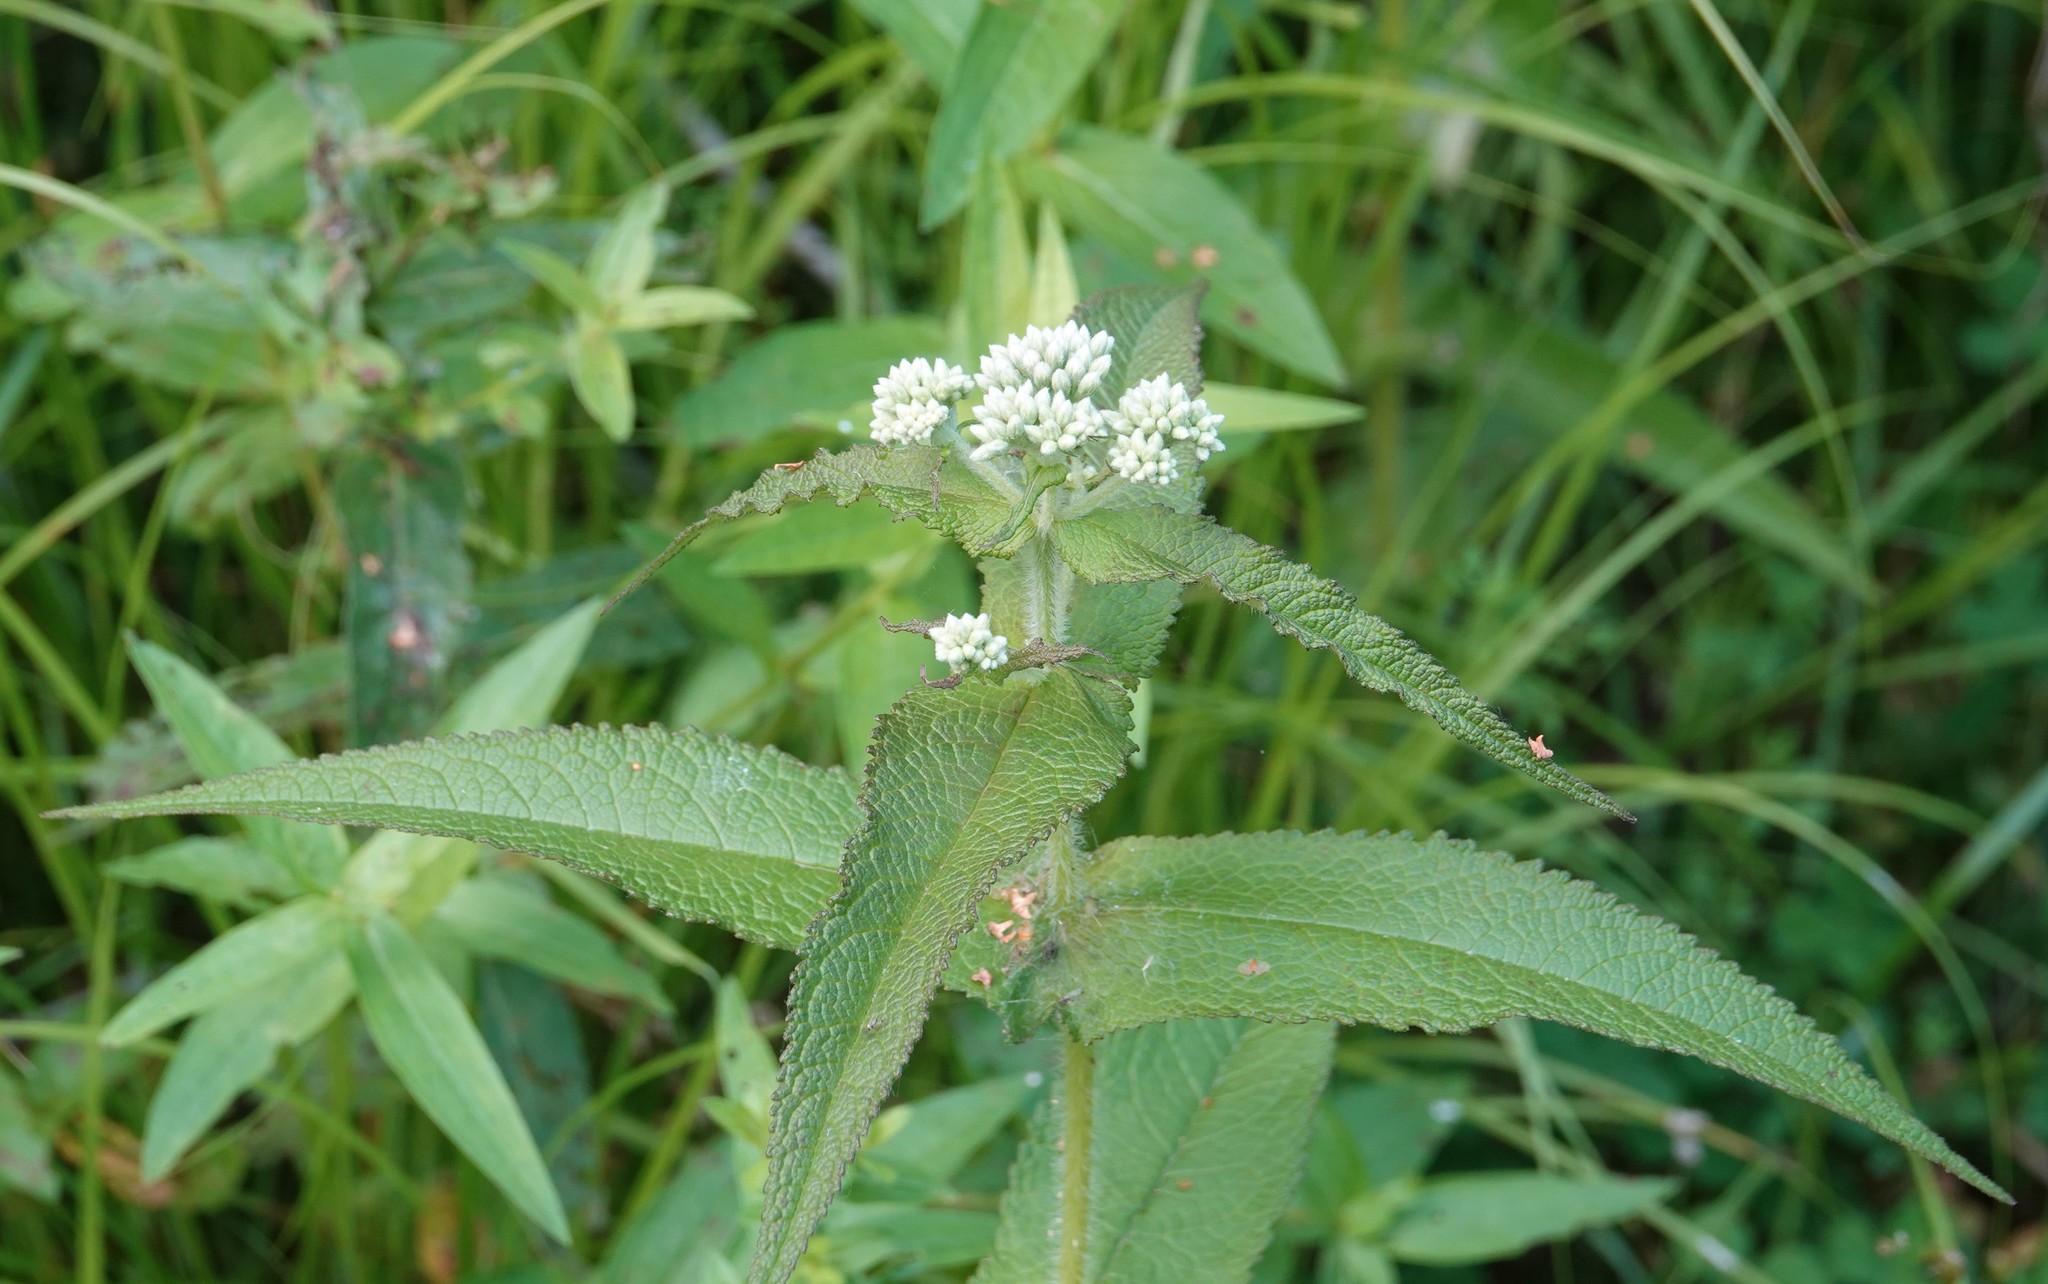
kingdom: Plantae
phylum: Tracheophyta
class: Magnoliopsida
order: Asterales
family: Asteraceae
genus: Eupatorium
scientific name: Eupatorium perfoliatum
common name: Boneset
